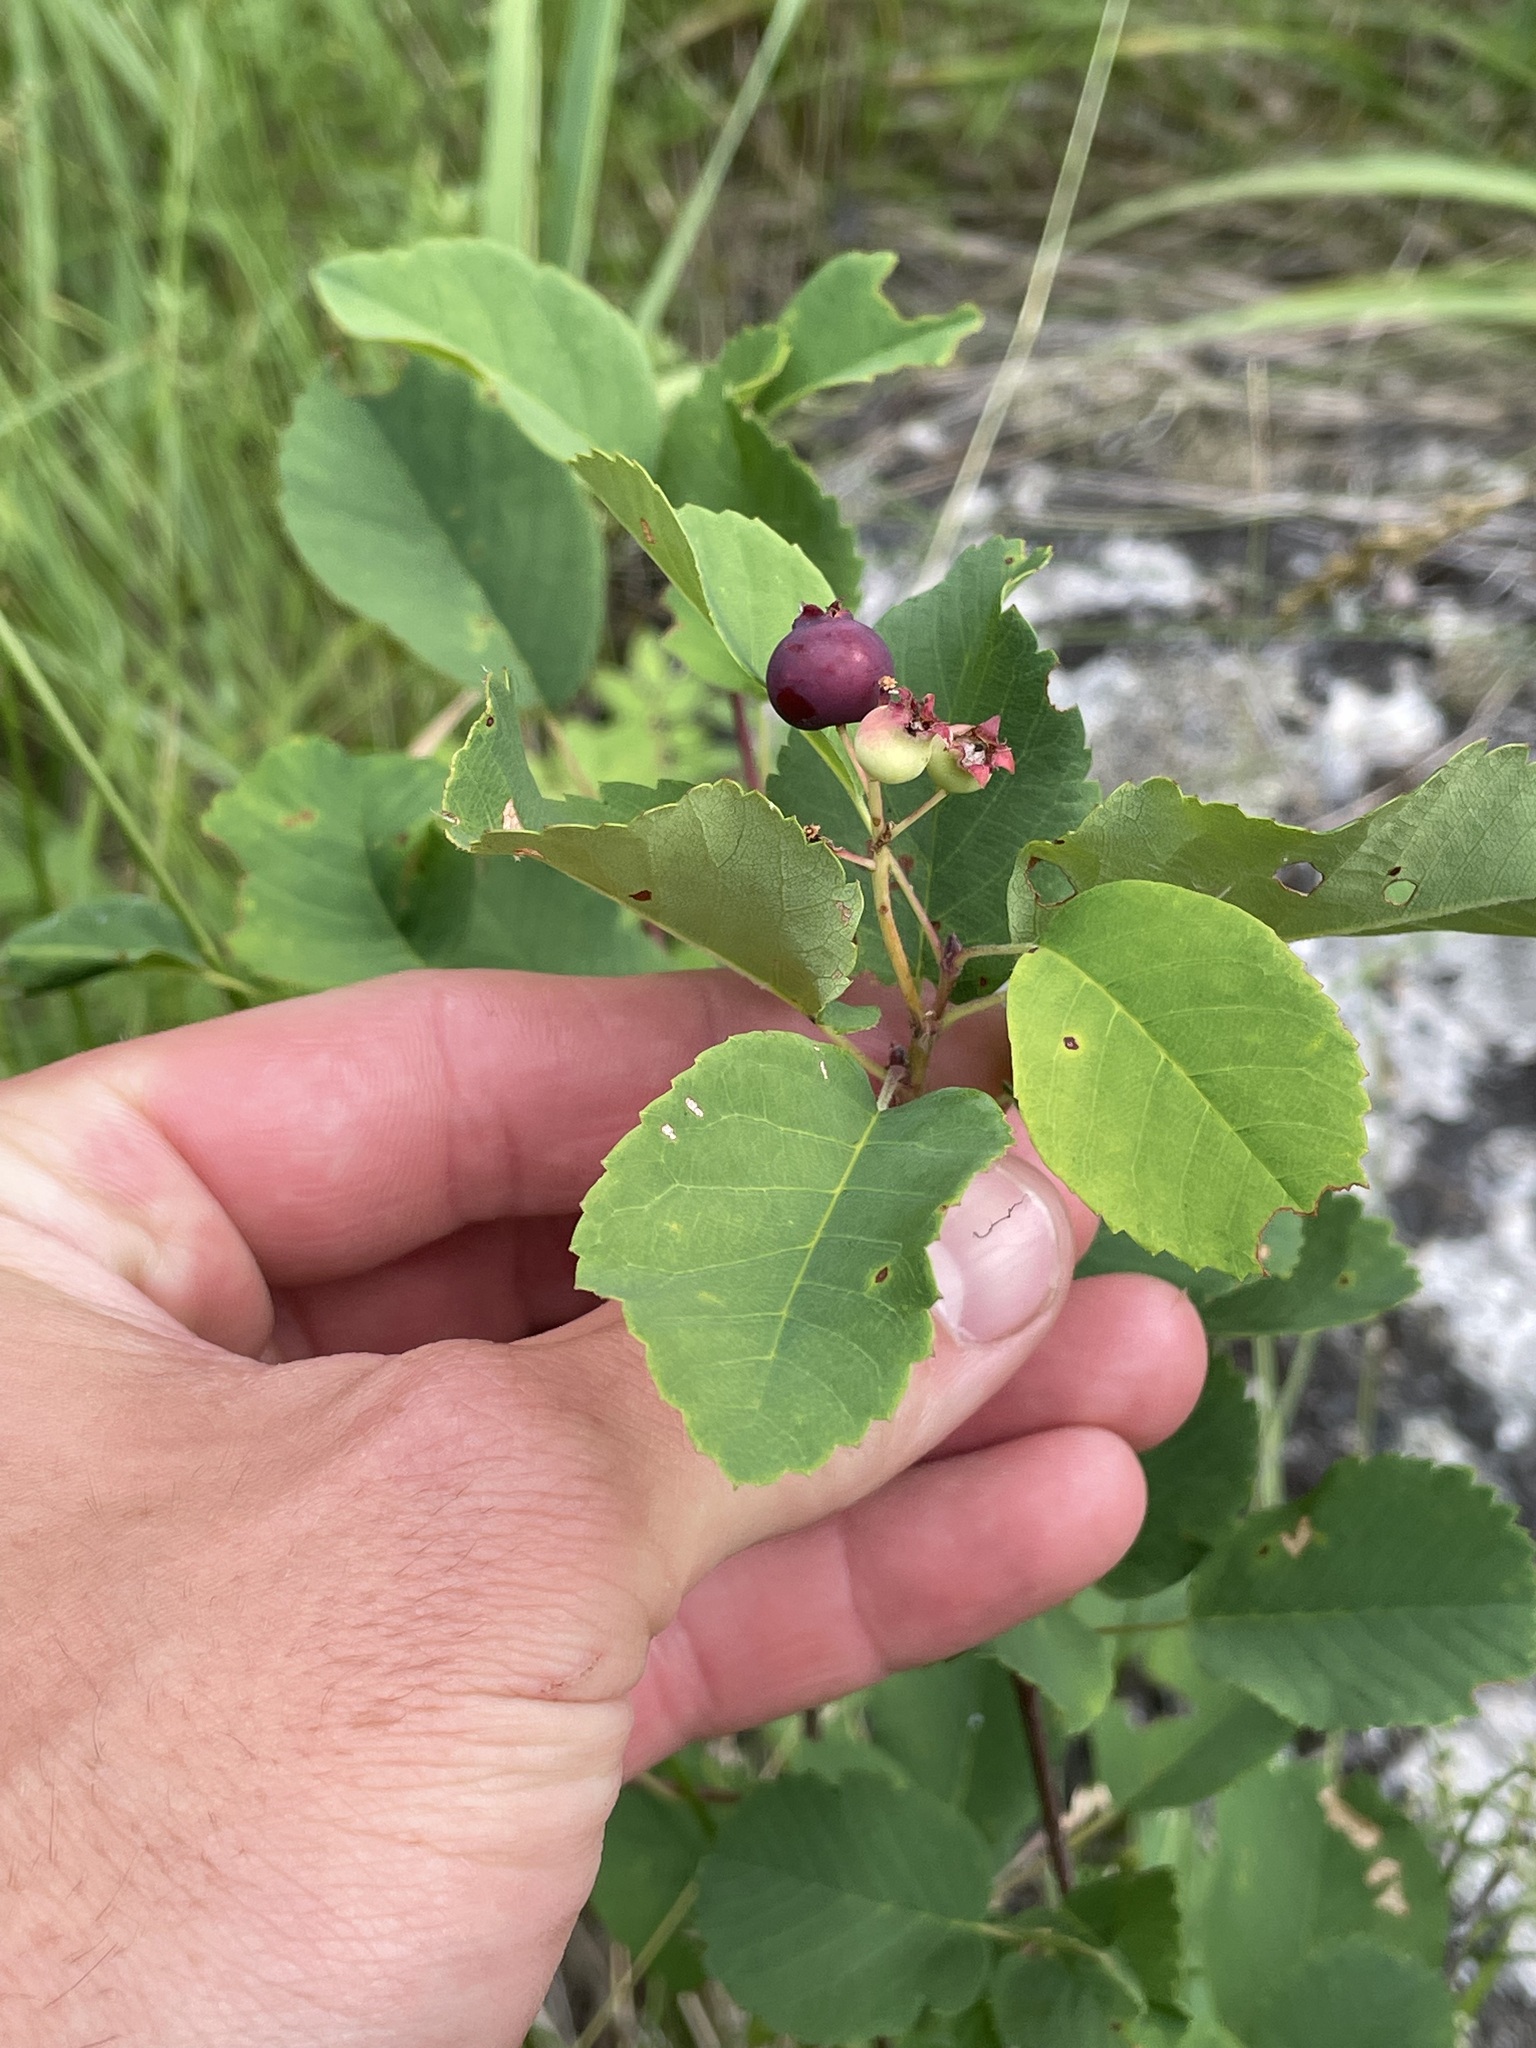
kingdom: Plantae
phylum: Tracheophyta
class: Magnoliopsida
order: Rosales
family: Rosaceae
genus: Amelanchier
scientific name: Amelanchier alnifolia
